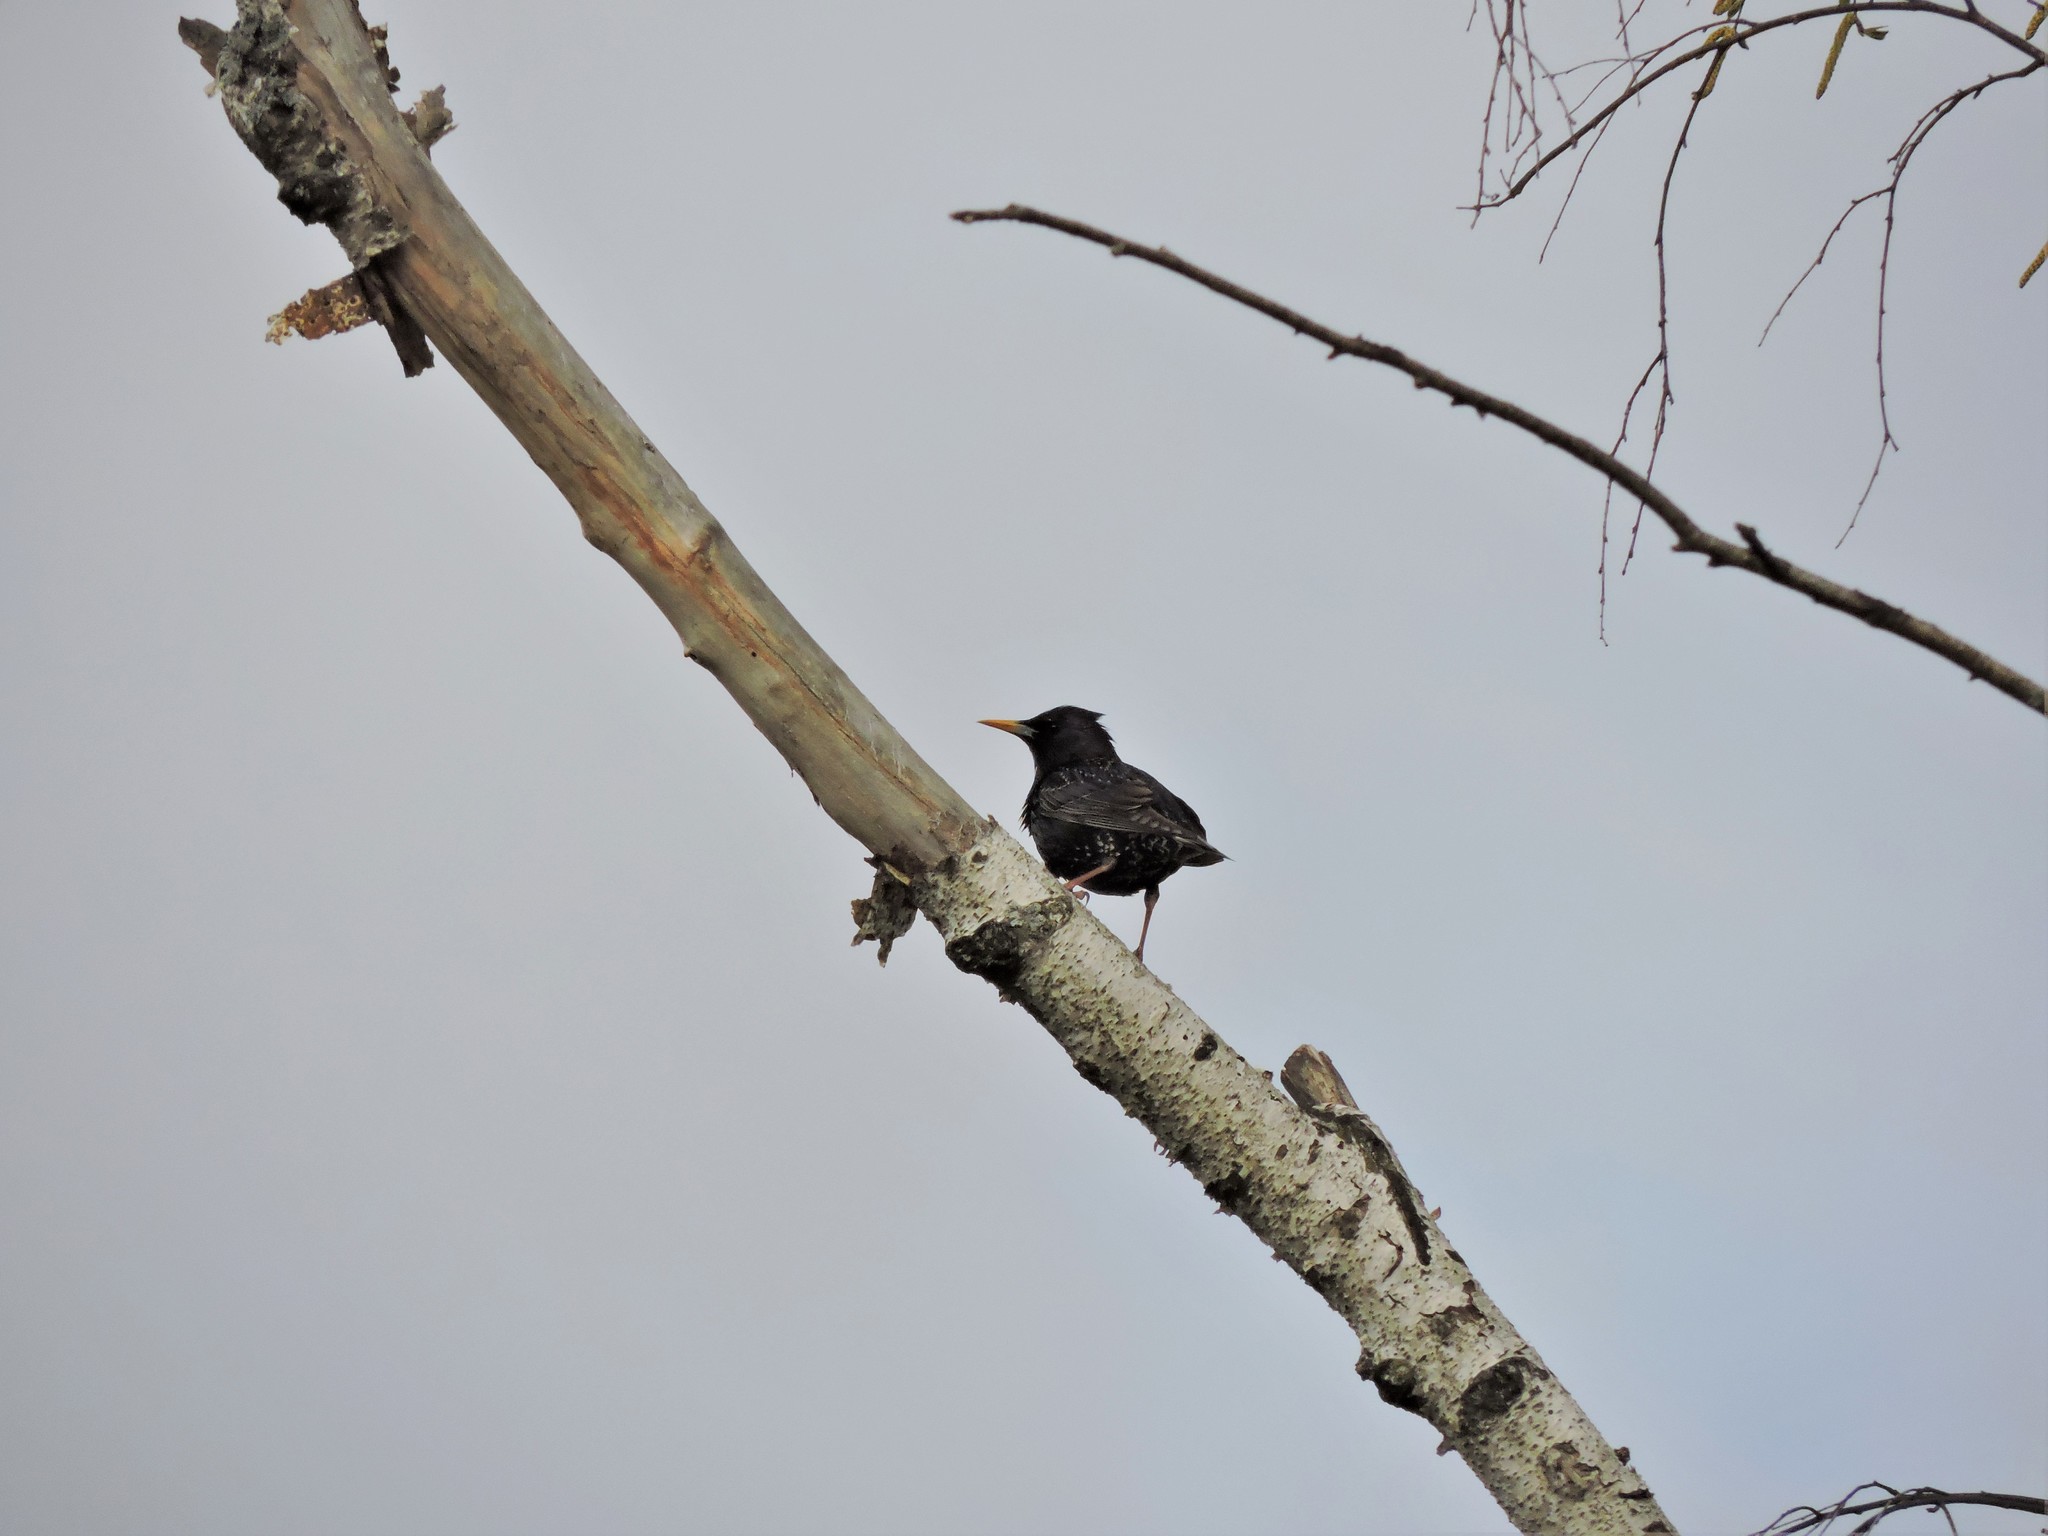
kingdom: Animalia
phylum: Chordata
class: Aves
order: Passeriformes
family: Sturnidae
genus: Sturnus
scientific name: Sturnus vulgaris
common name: Common starling
